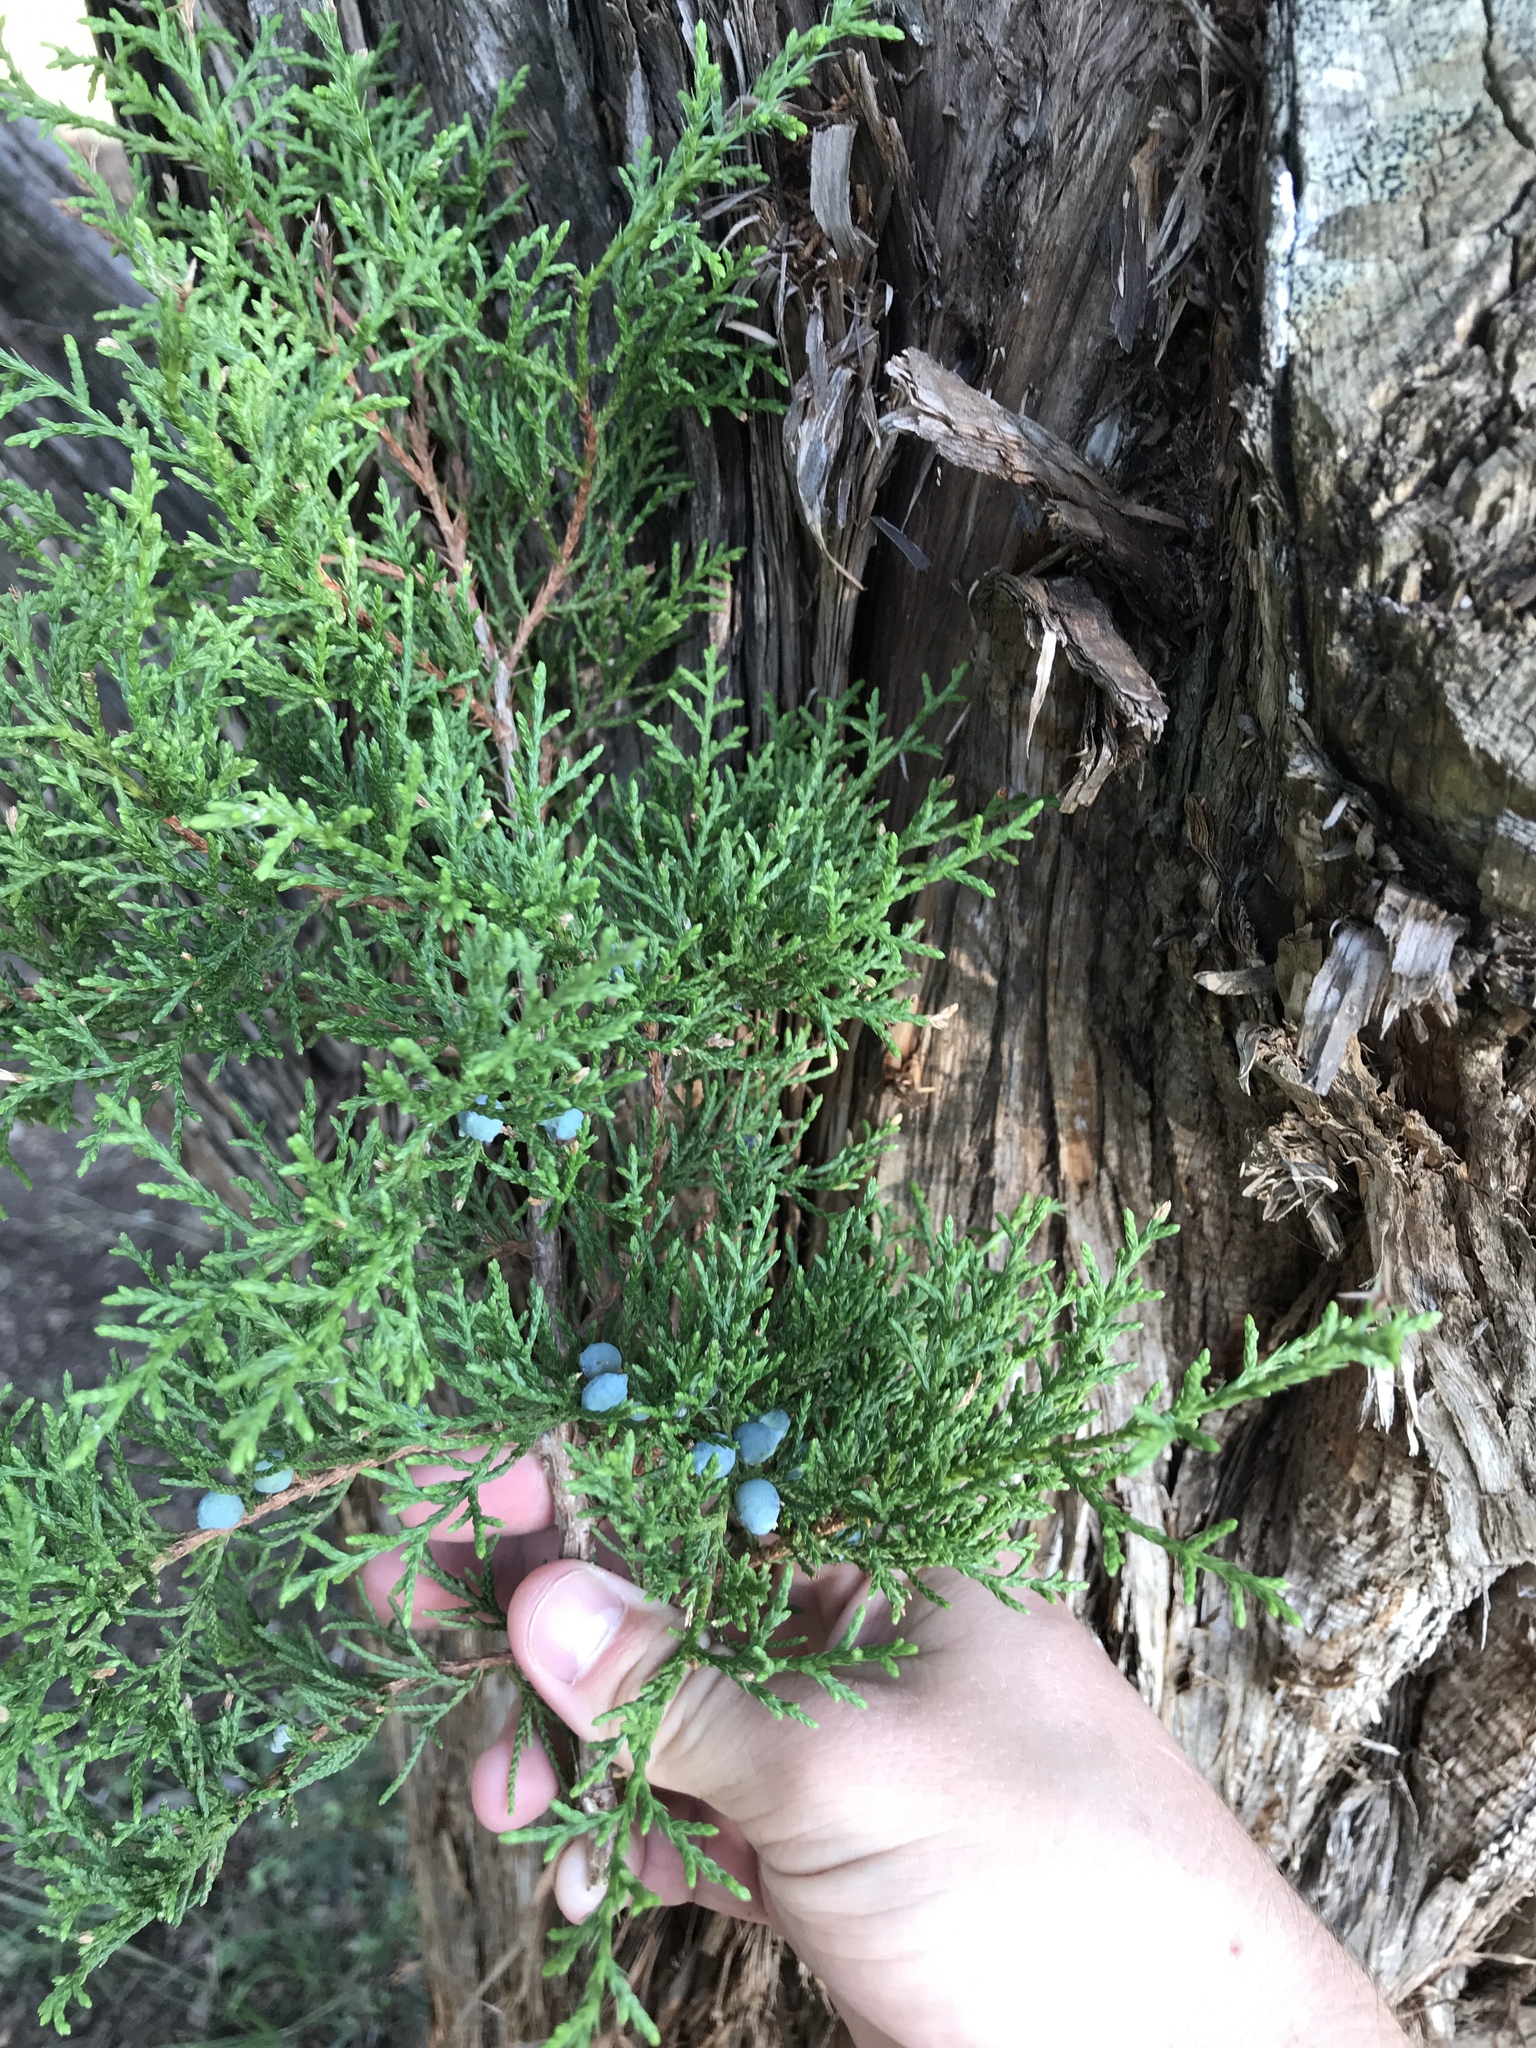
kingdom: Plantae
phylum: Tracheophyta
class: Pinopsida
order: Pinales
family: Cupressaceae
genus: Juniperus
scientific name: Juniperus ashei
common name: Mexican juniper
